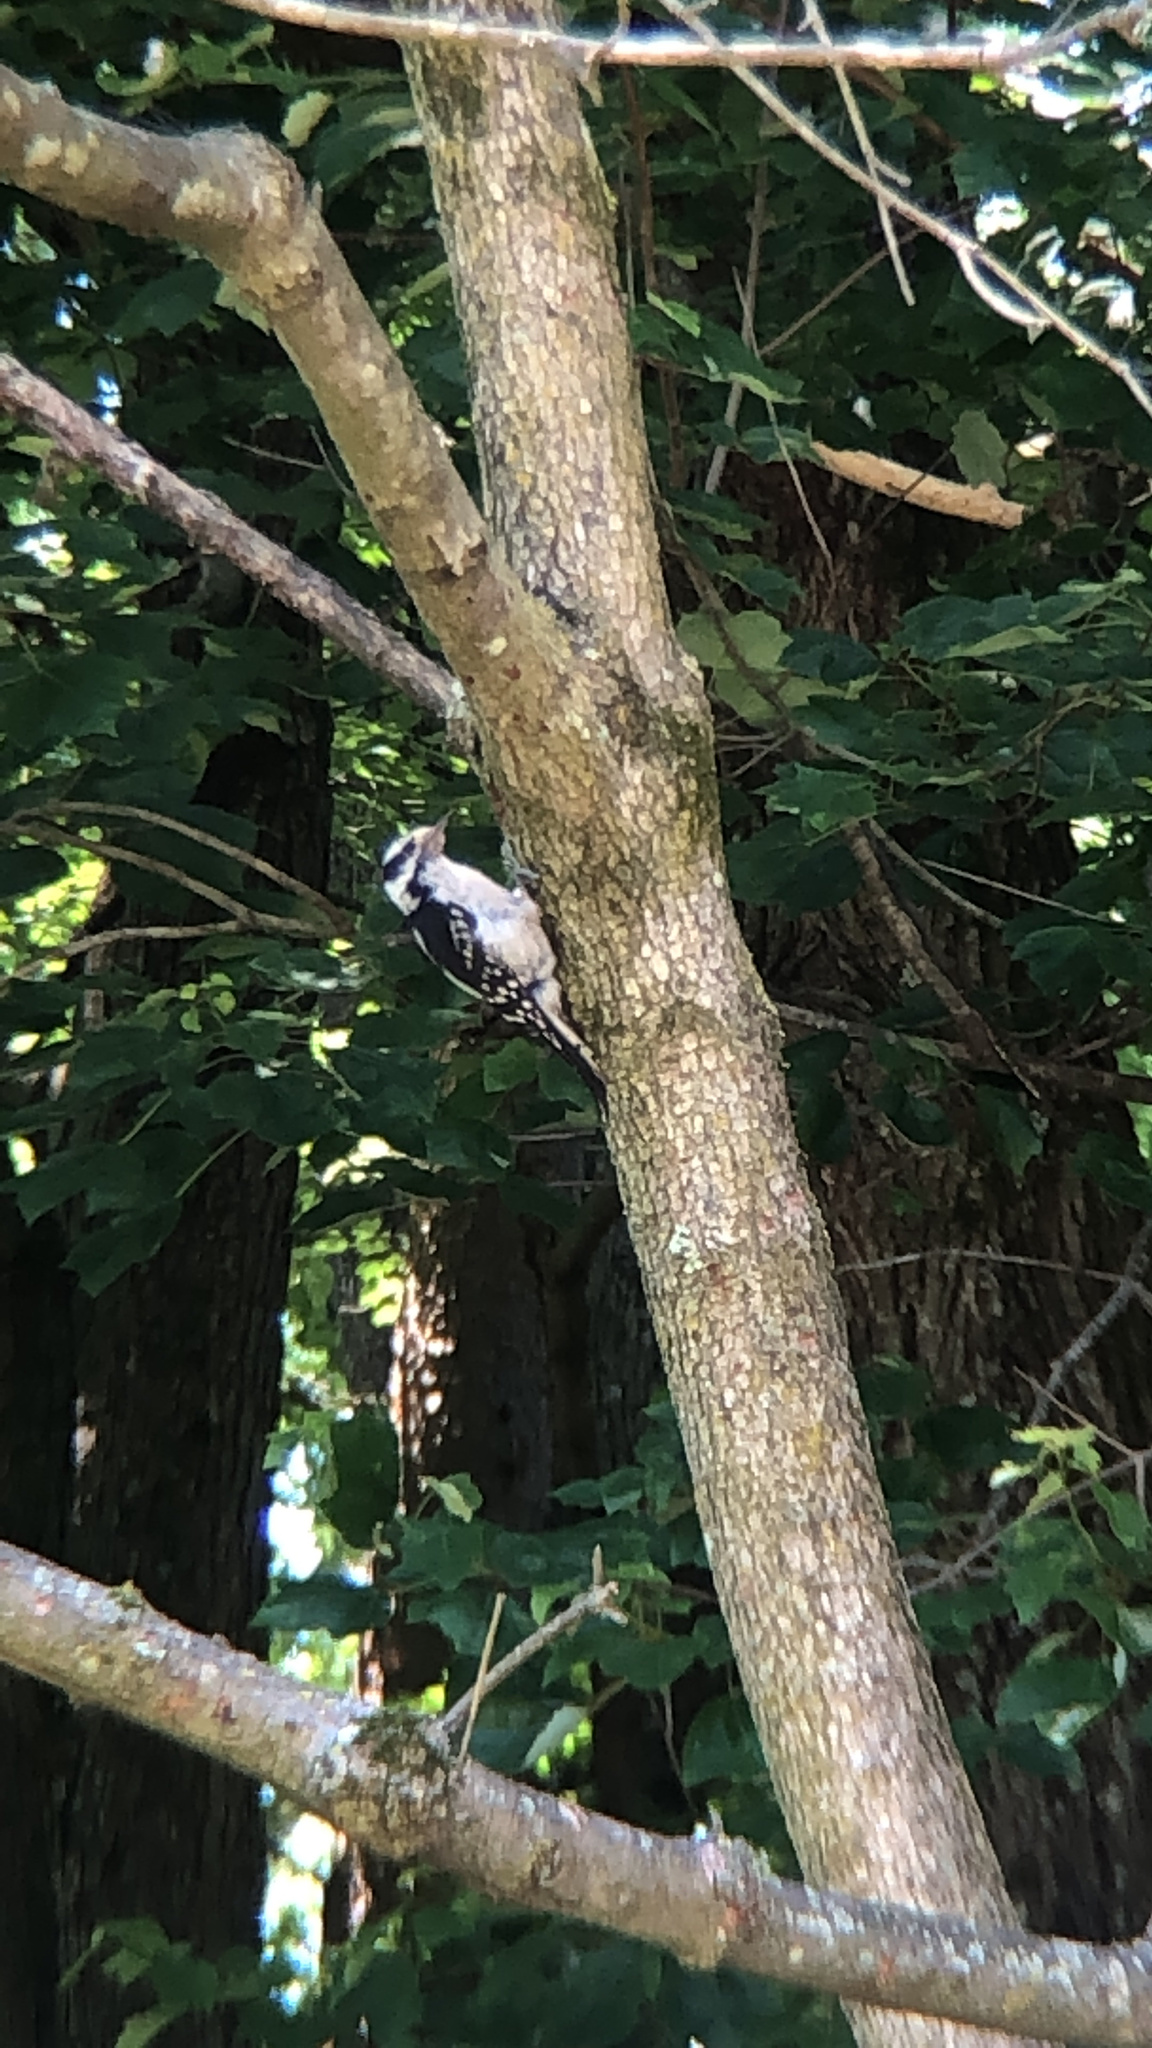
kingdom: Animalia
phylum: Chordata
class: Aves
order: Piciformes
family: Picidae
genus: Dryobates
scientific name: Dryobates pubescens
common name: Downy woodpecker
